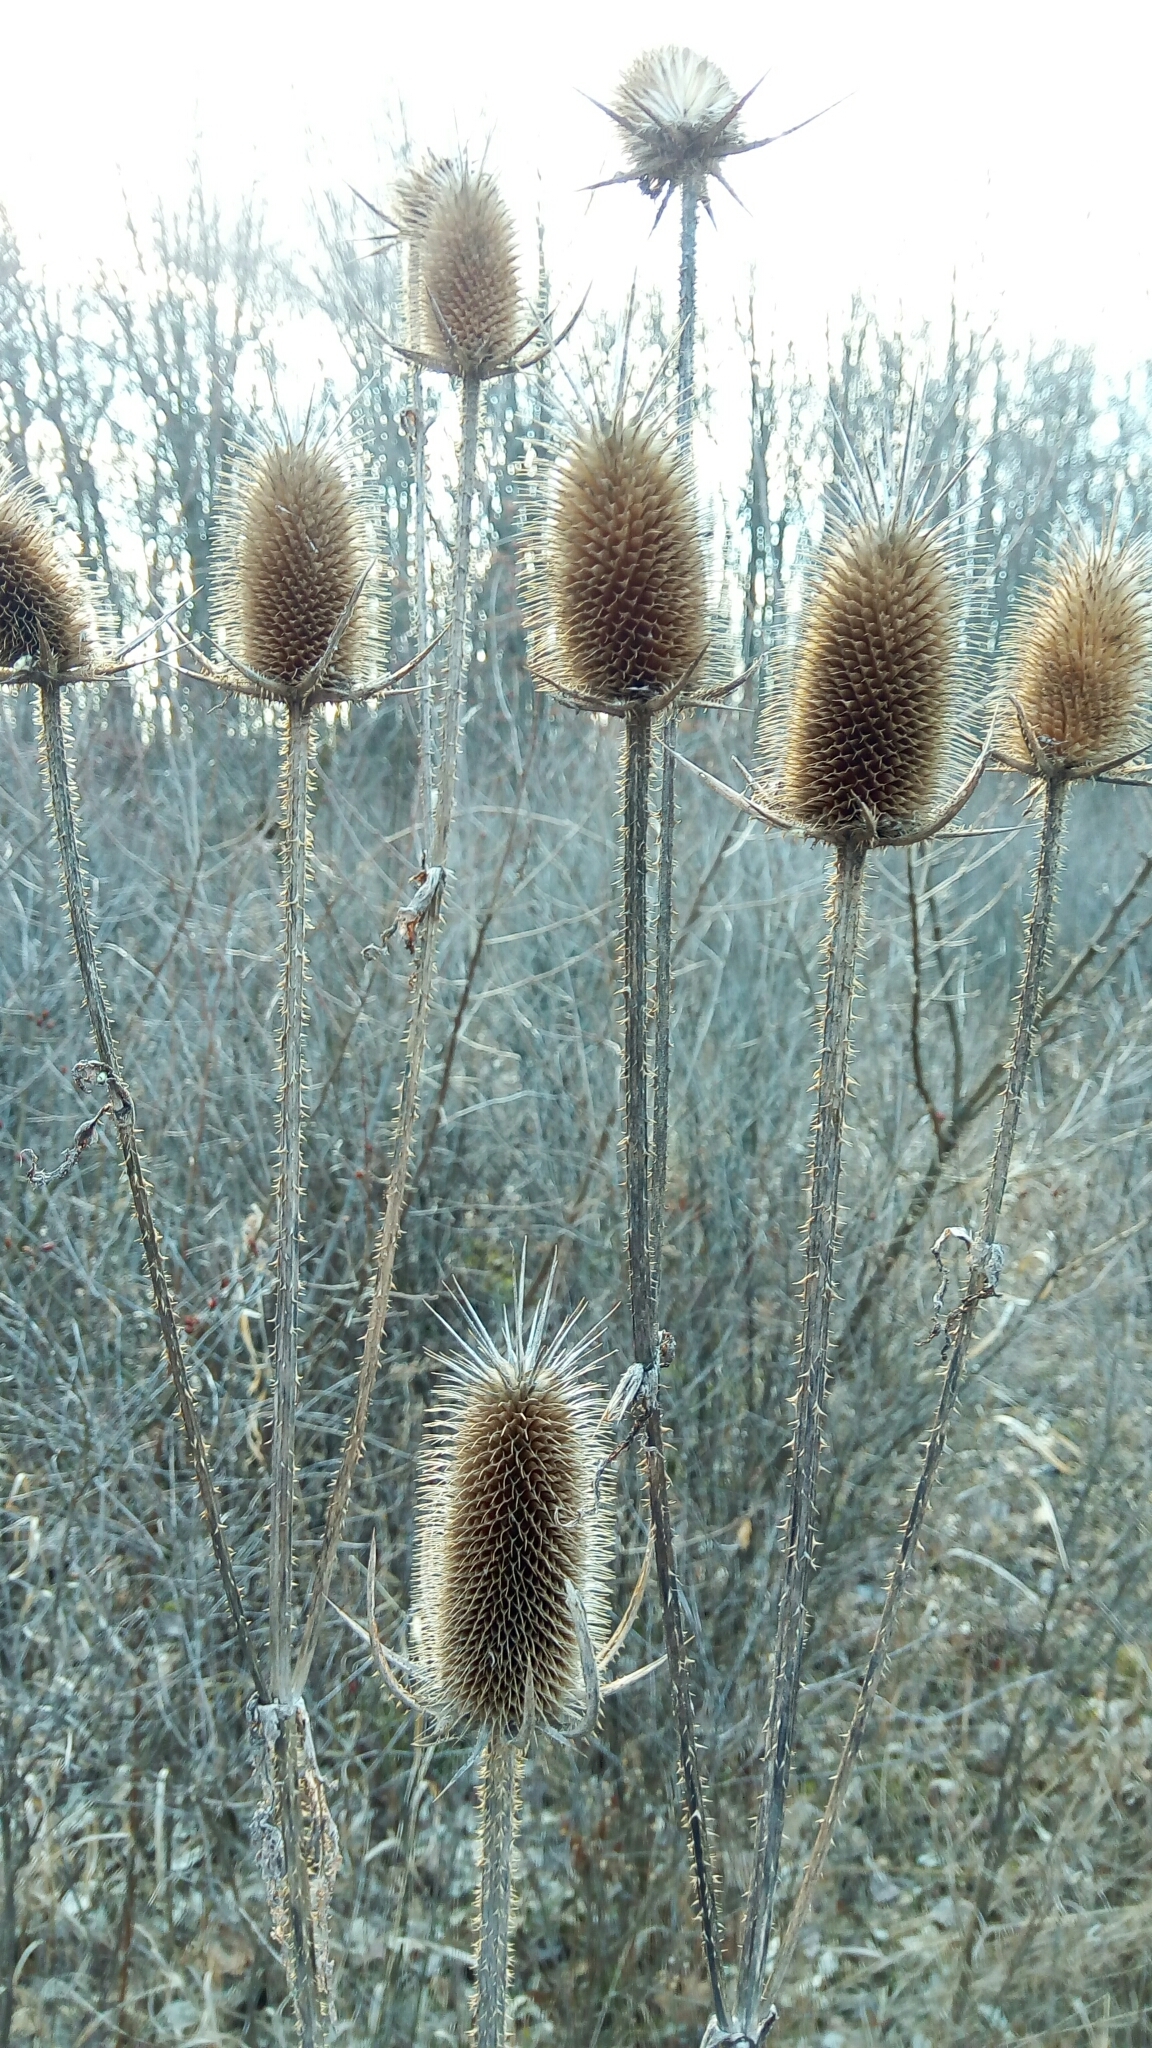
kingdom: Plantae
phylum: Tracheophyta
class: Magnoliopsida
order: Dipsacales
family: Caprifoliaceae
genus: Dipsacus
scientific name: Dipsacus laciniatus
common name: Cut-leaved teasel
